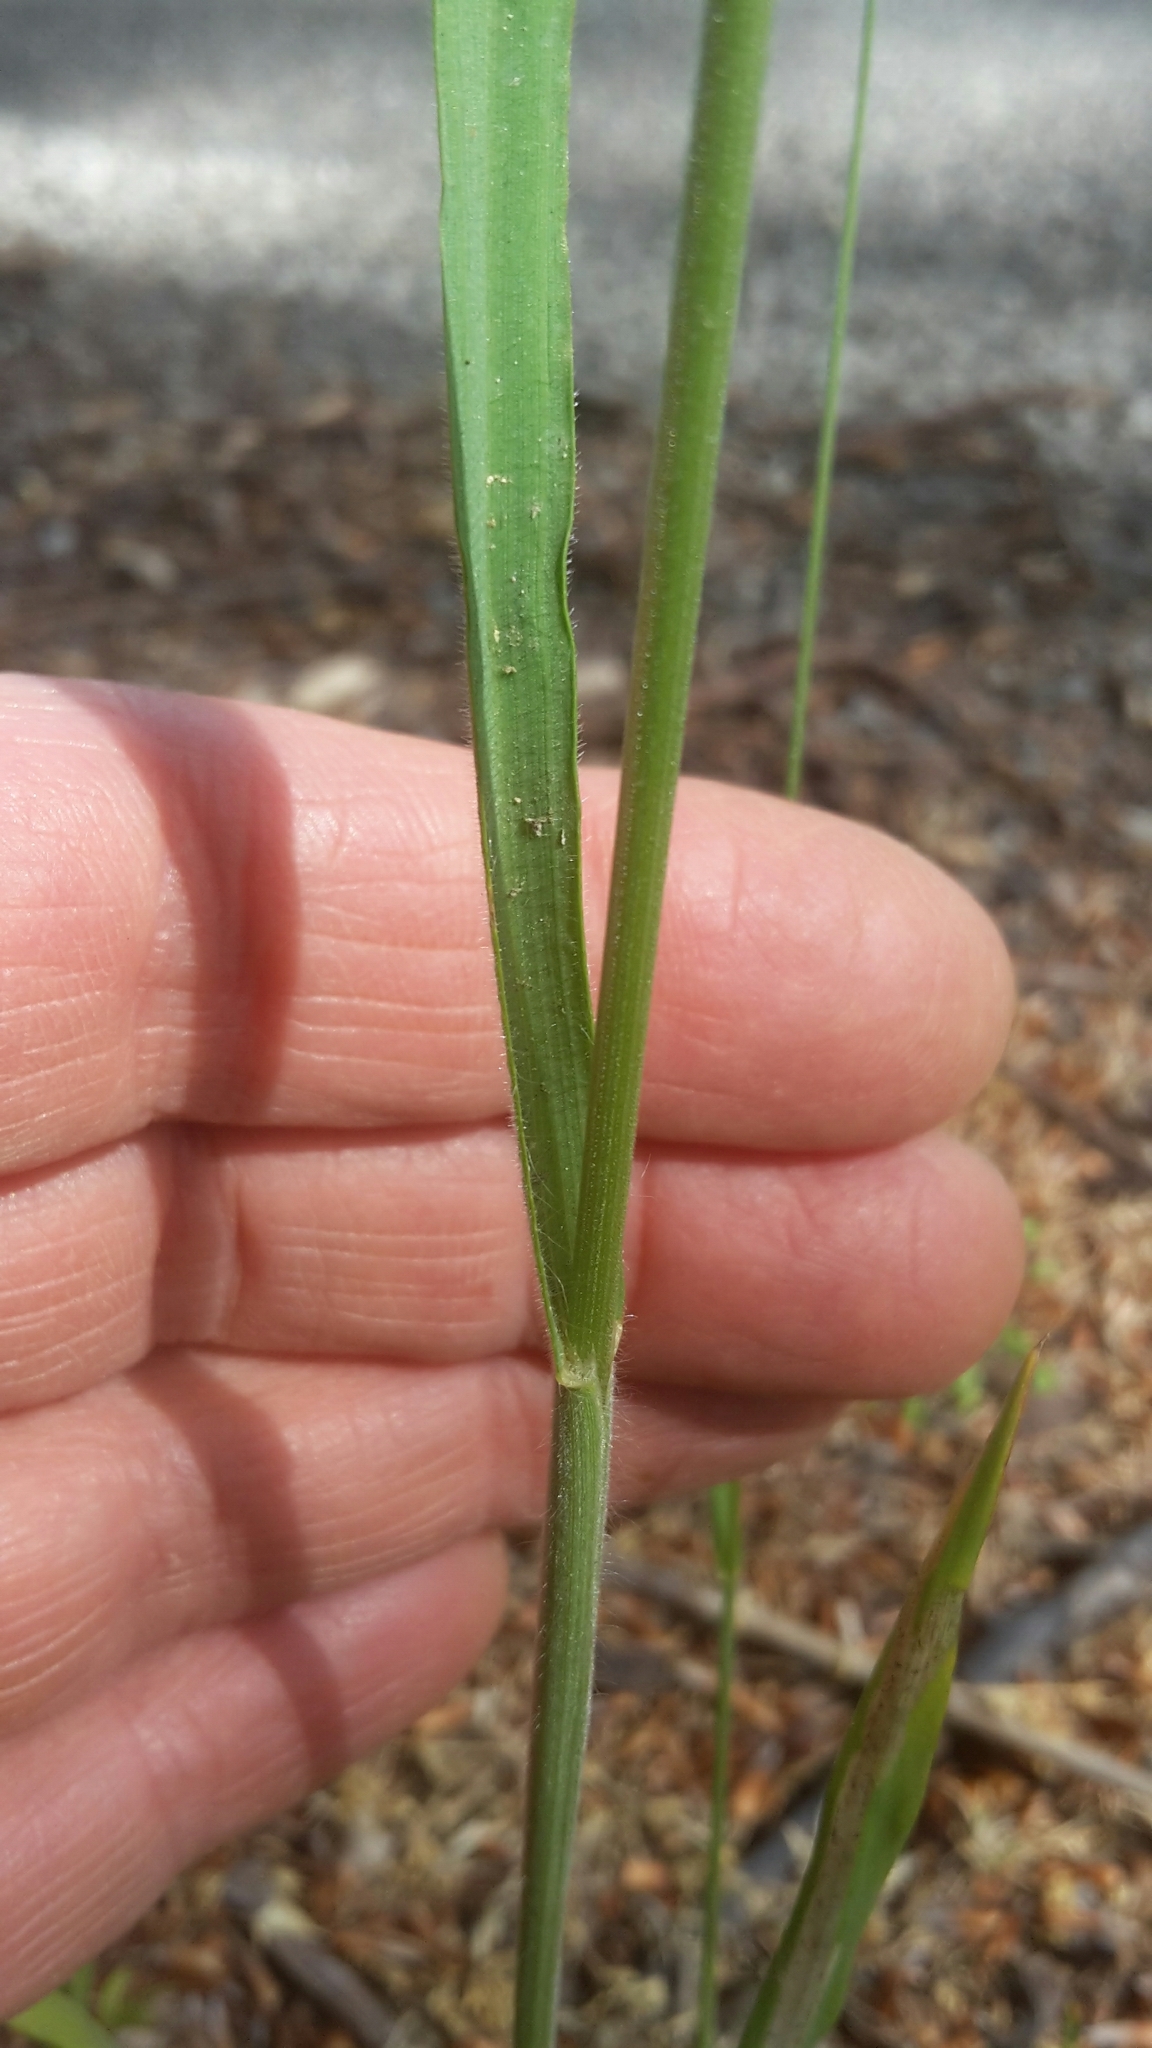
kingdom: Plantae
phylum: Tracheophyta
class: Liliopsida
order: Poales
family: Poaceae
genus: Bromus
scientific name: Bromus hordeaceus
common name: Soft brome
